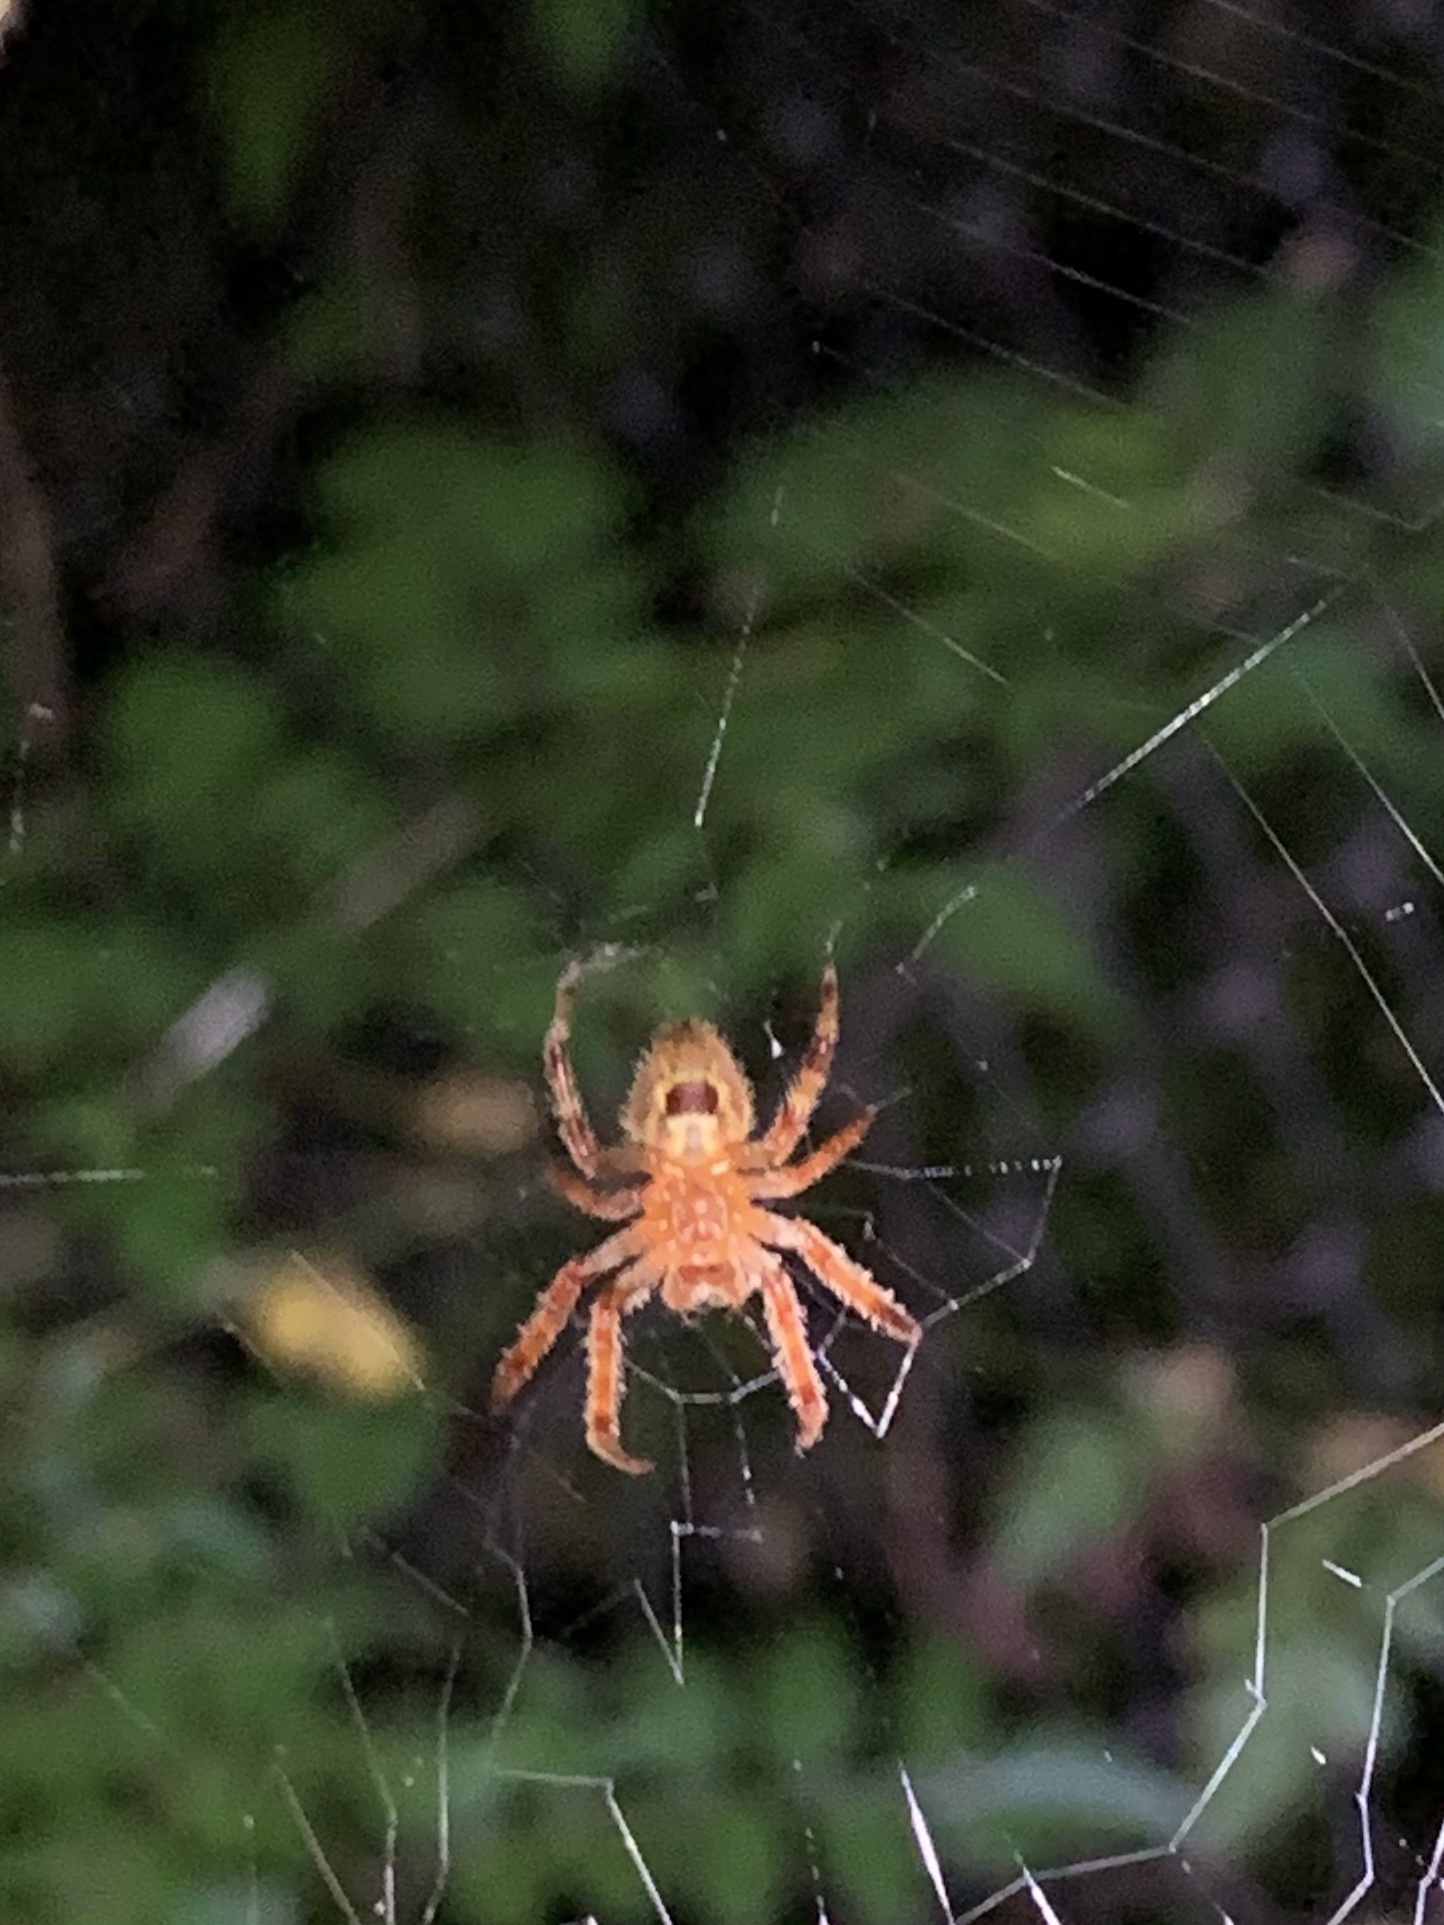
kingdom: Animalia
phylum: Arthropoda
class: Arachnida
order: Araneae
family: Araneidae
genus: Eriophora
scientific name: Eriophora ravilla
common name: Orb weavers
